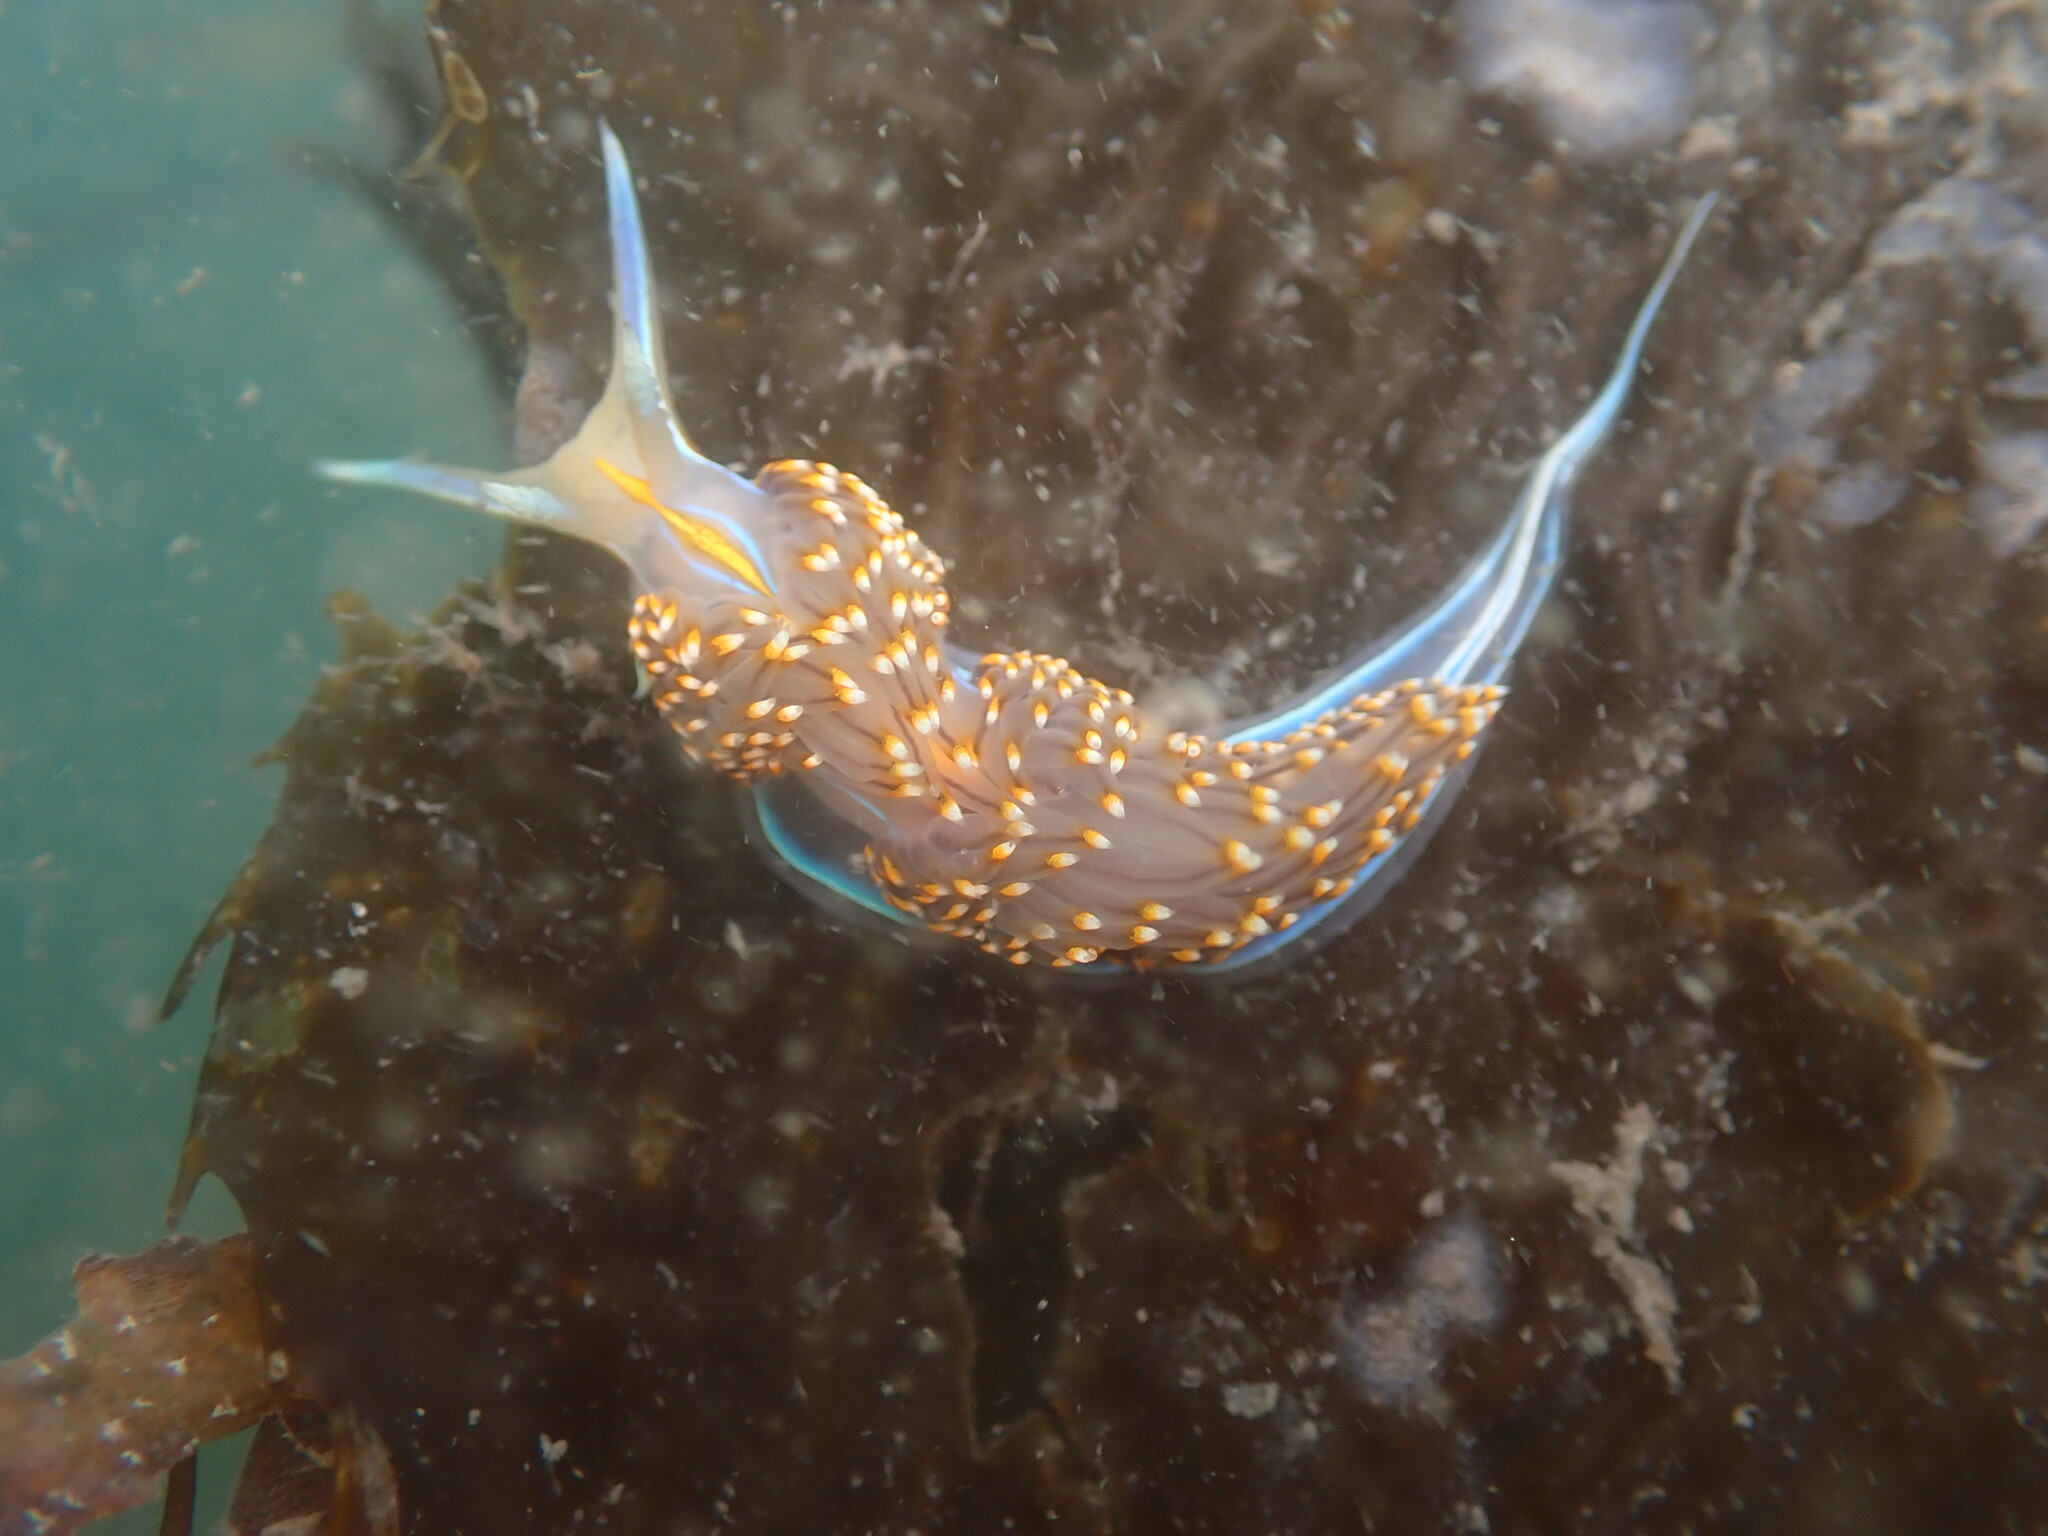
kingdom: Animalia
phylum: Mollusca
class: Gastropoda
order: Nudibranchia
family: Myrrhinidae
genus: Hermissenda
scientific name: Hermissenda opalescens
